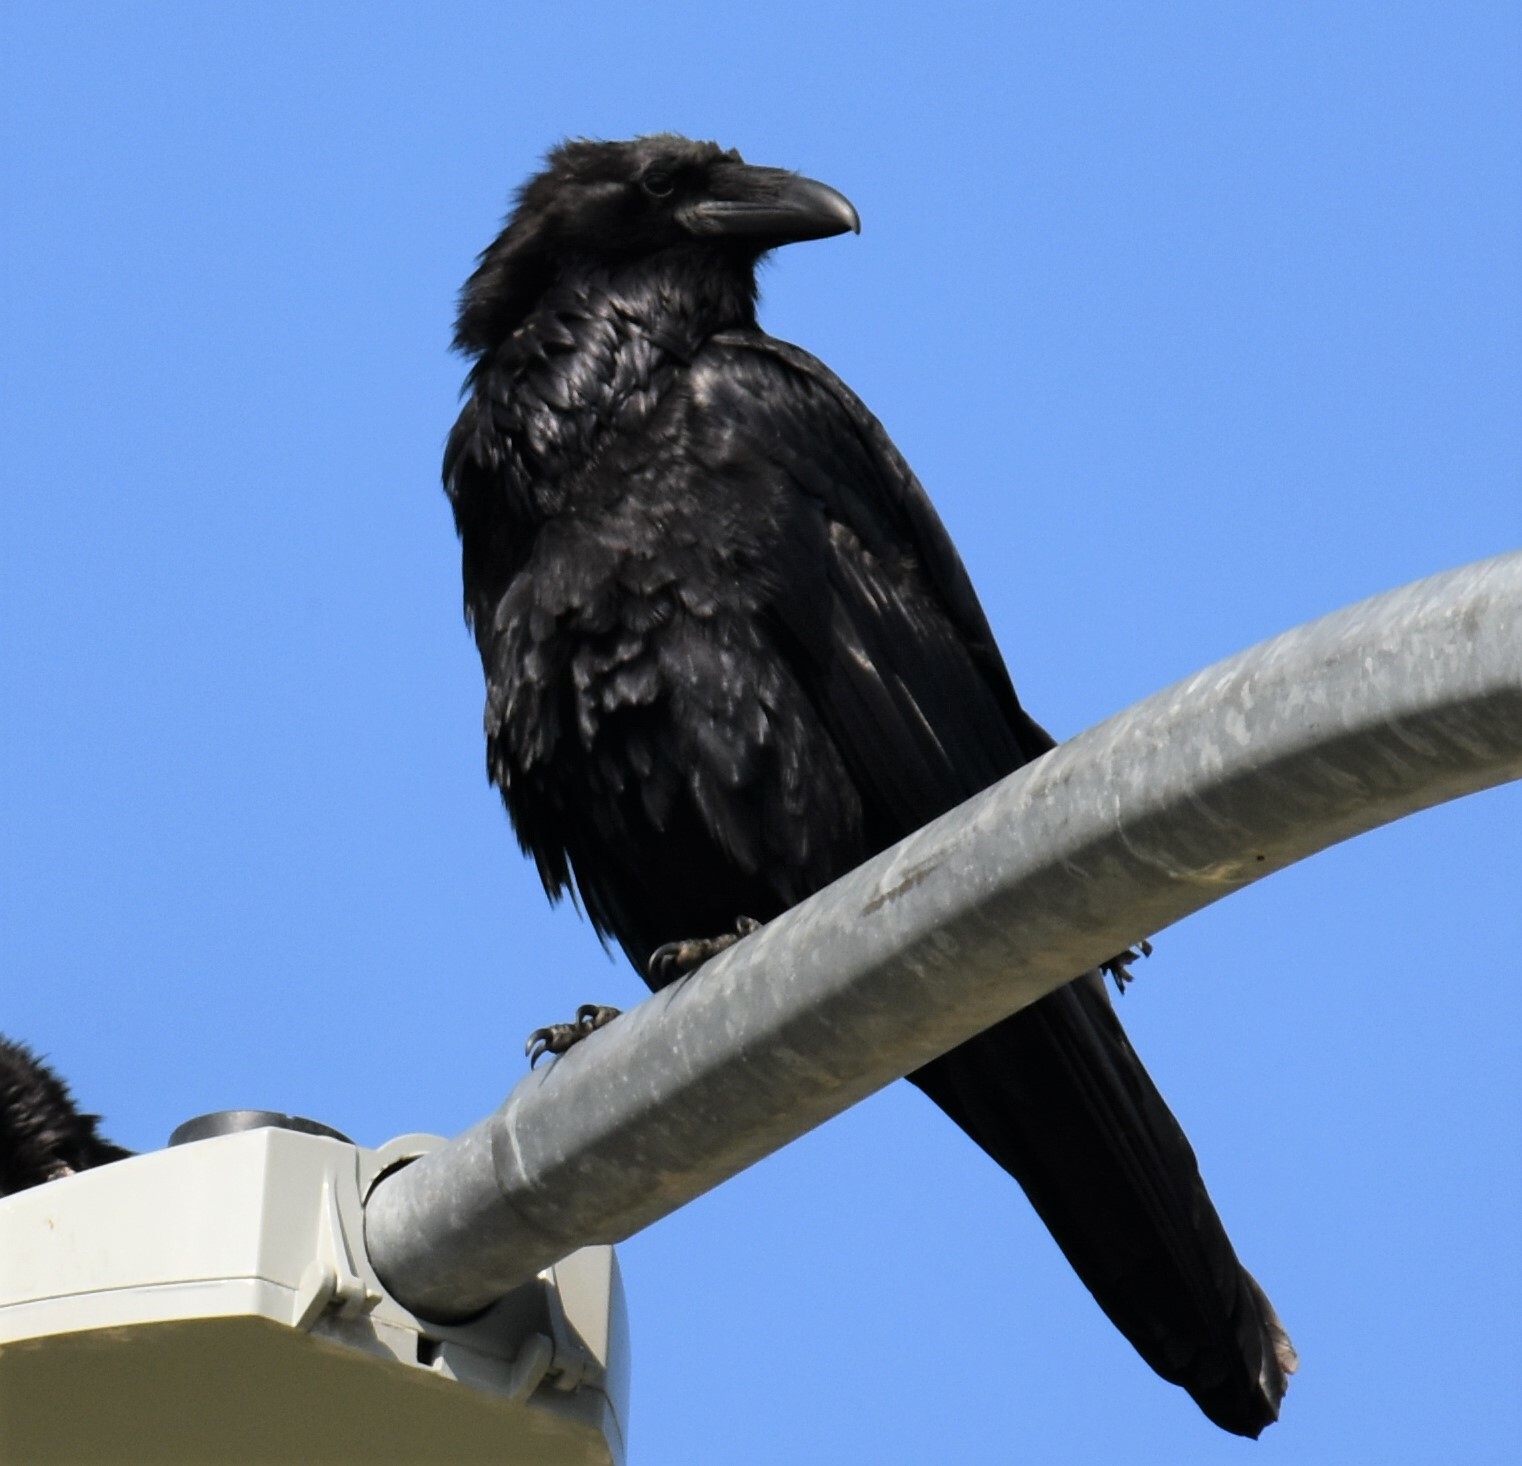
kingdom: Animalia
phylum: Chordata
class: Aves
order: Passeriformes
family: Corvidae
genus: Corvus
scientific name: Corvus corax
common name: Common raven
